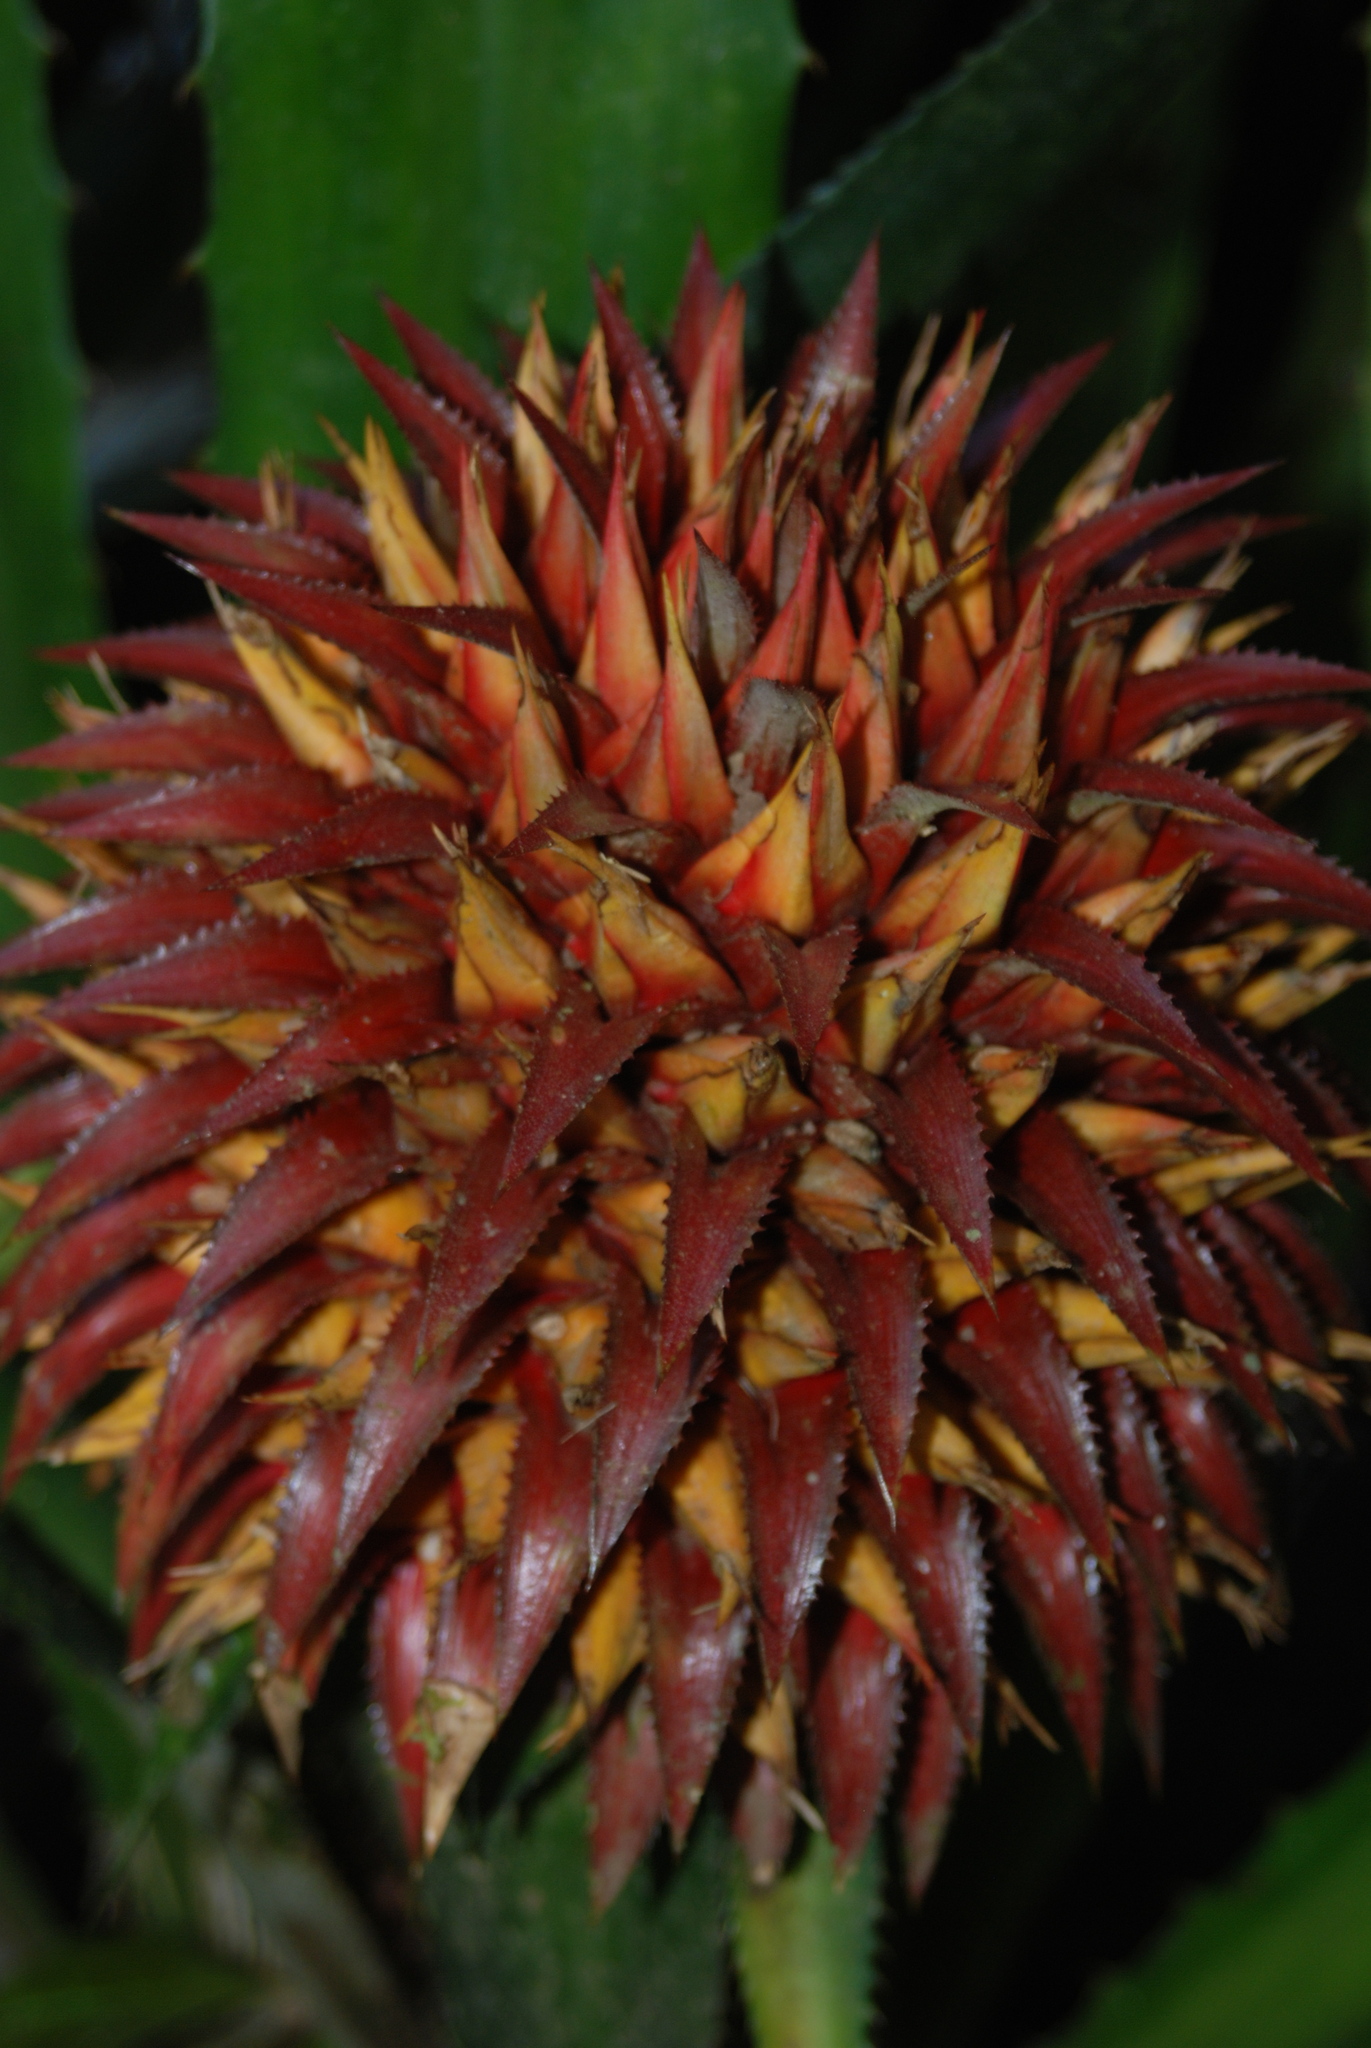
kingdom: Plantae
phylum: Tracheophyta
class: Liliopsida
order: Poales
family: Bromeliaceae
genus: Aechmea
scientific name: Aechmea magdalenae
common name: Arghan
